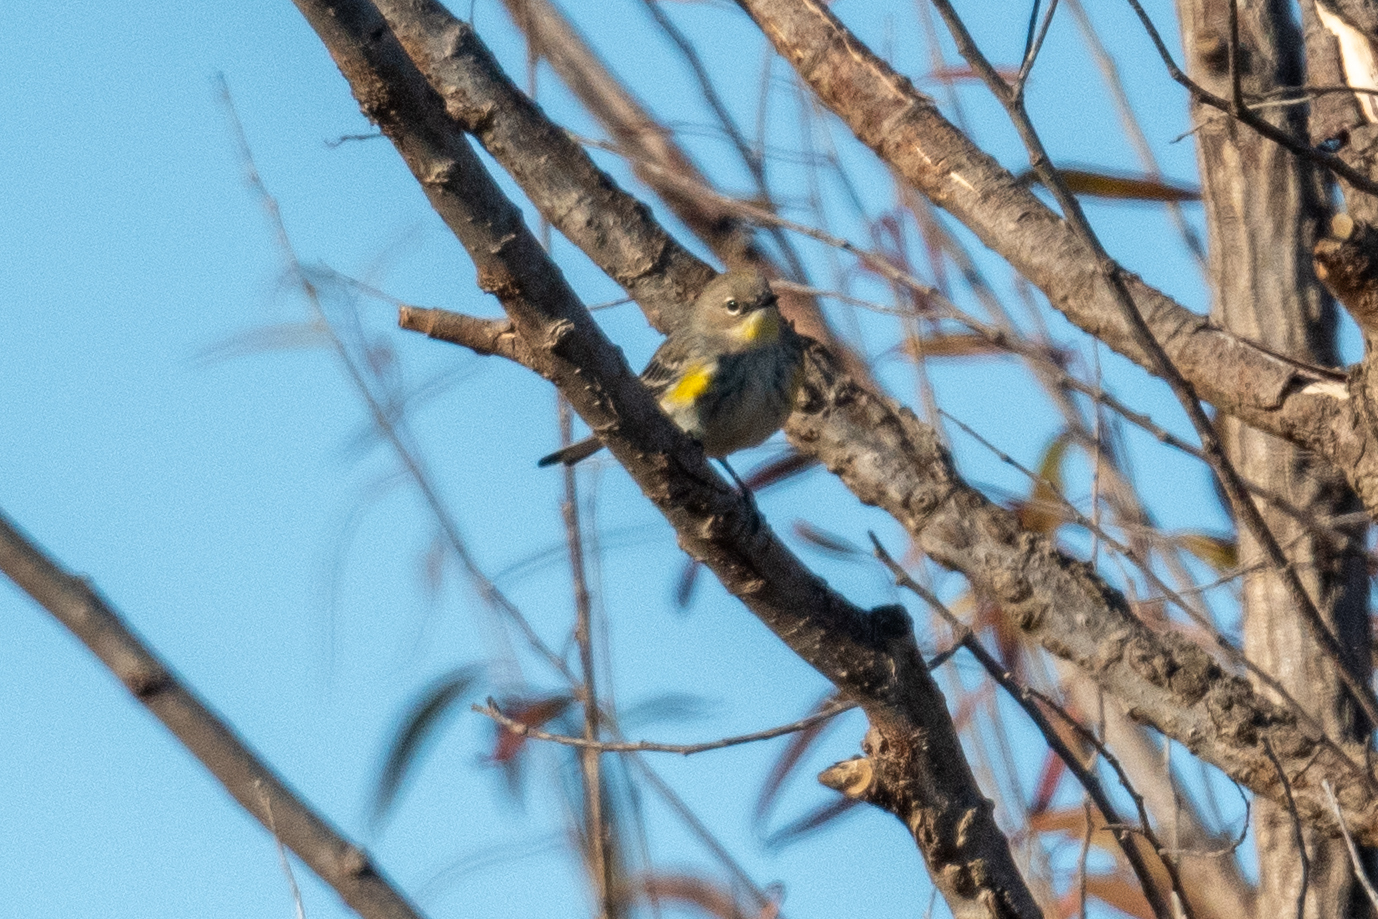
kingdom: Animalia
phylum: Chordata
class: Aves
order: Passeriformes
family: Parulidae
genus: Setophaga
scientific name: Setophaga coronata
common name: Myrtle warbler
